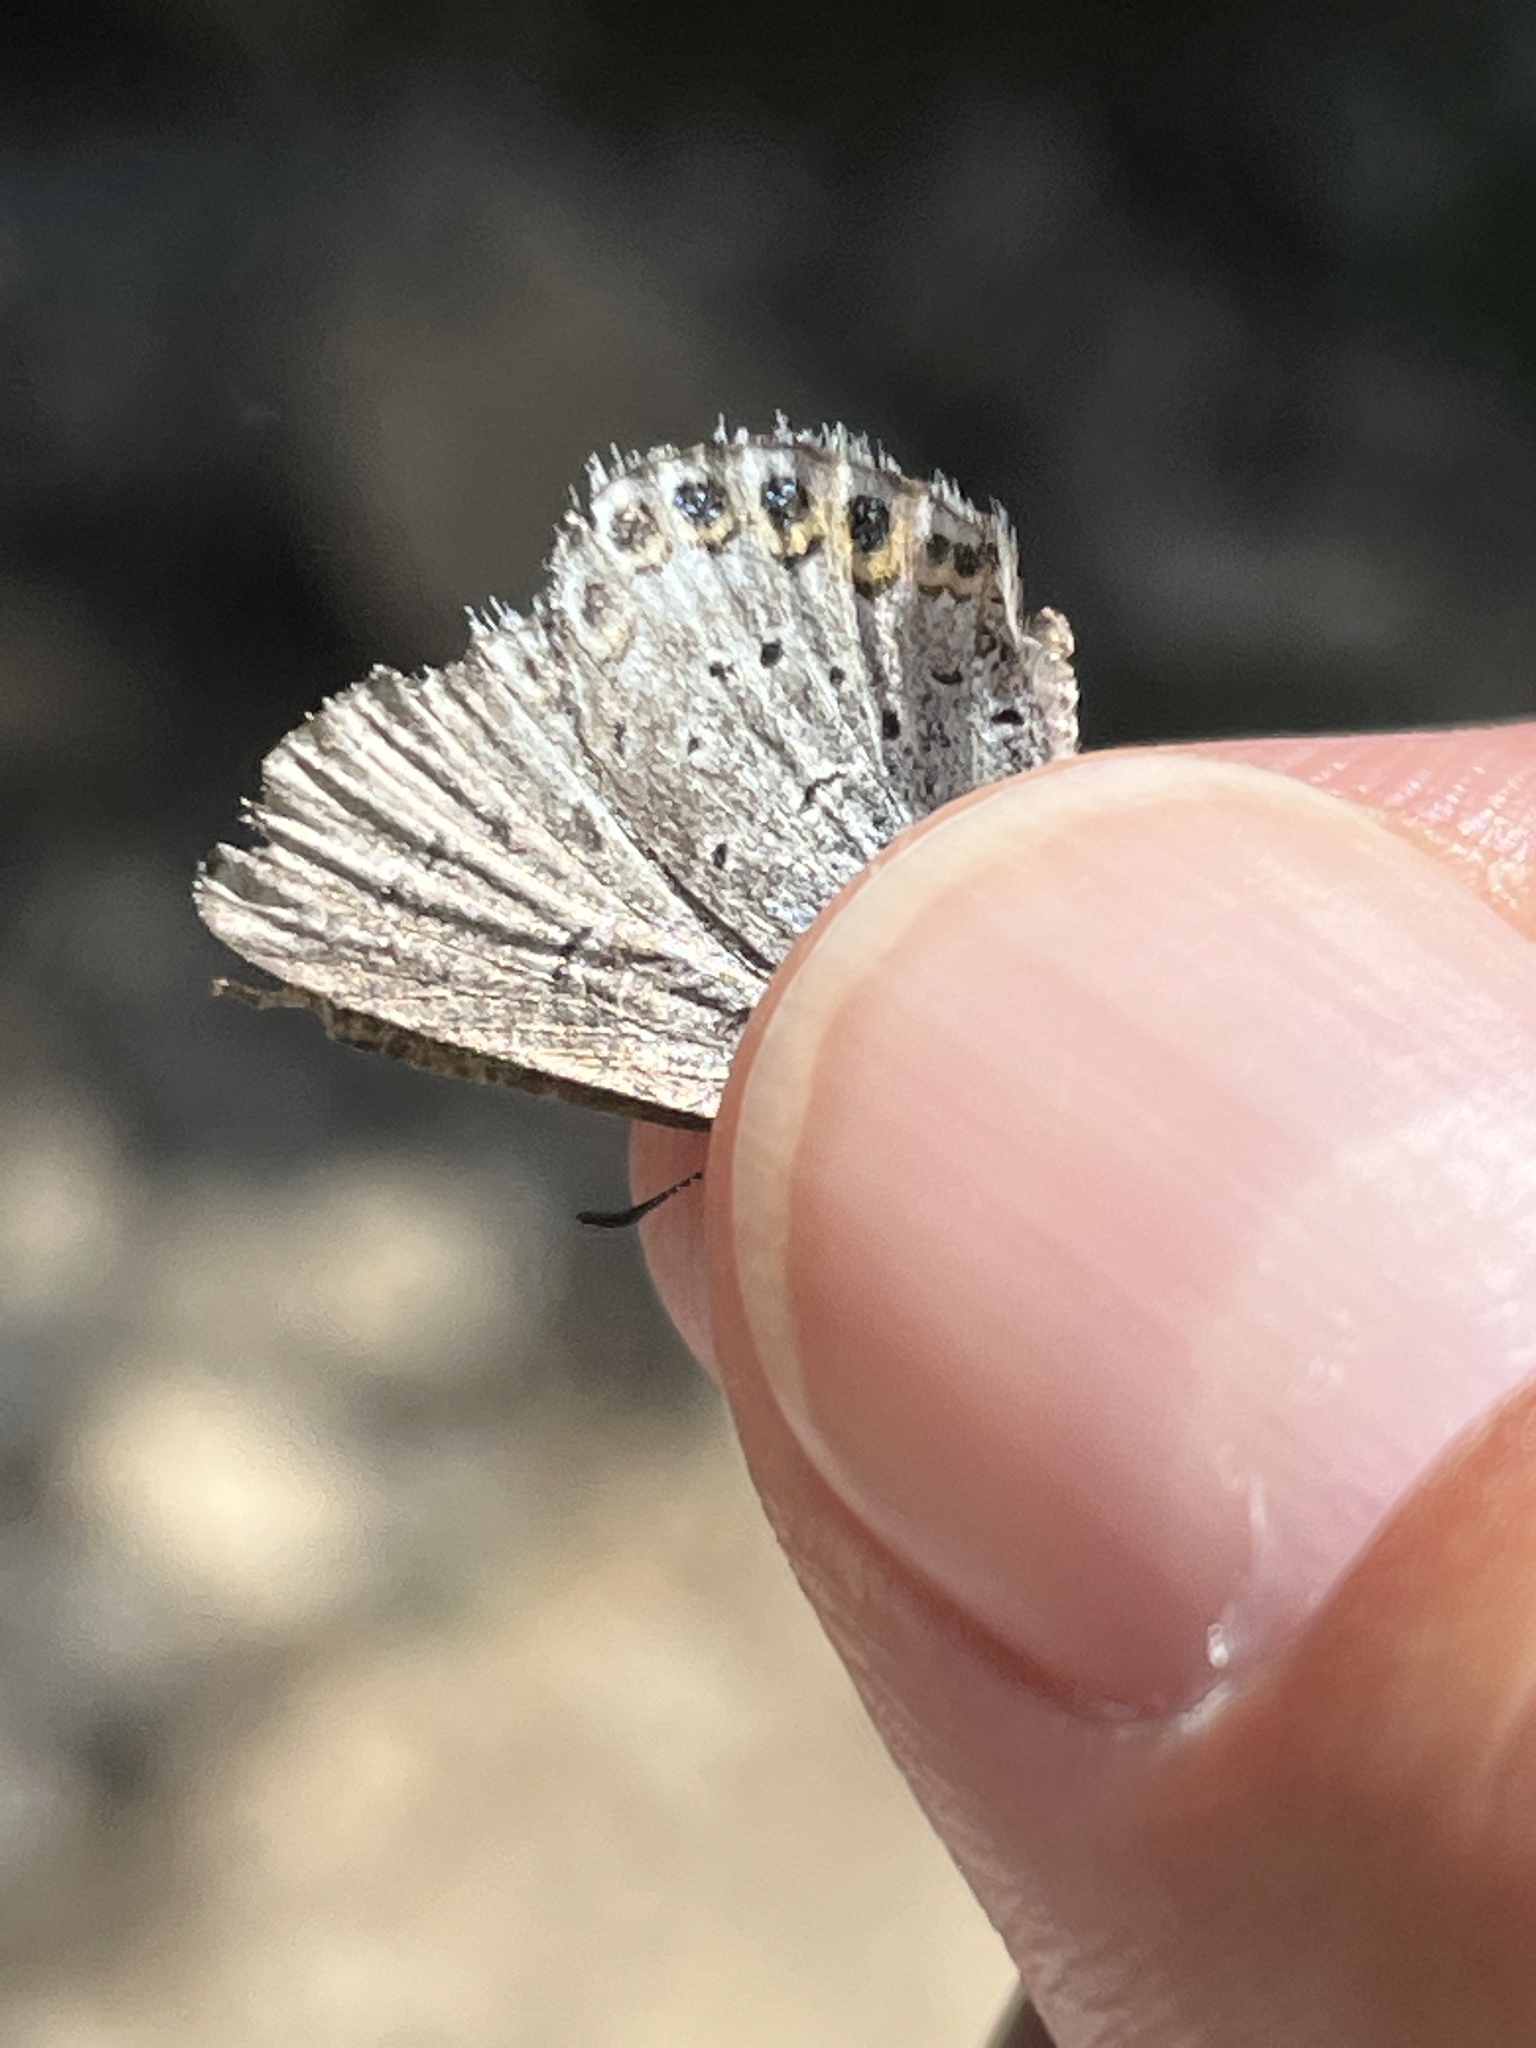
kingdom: Animalia
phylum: Arthropoda
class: Insecta
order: Lepidoptera
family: Lycaenidae
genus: Lycaeides
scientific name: Lycaeides idas
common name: Northern blue
